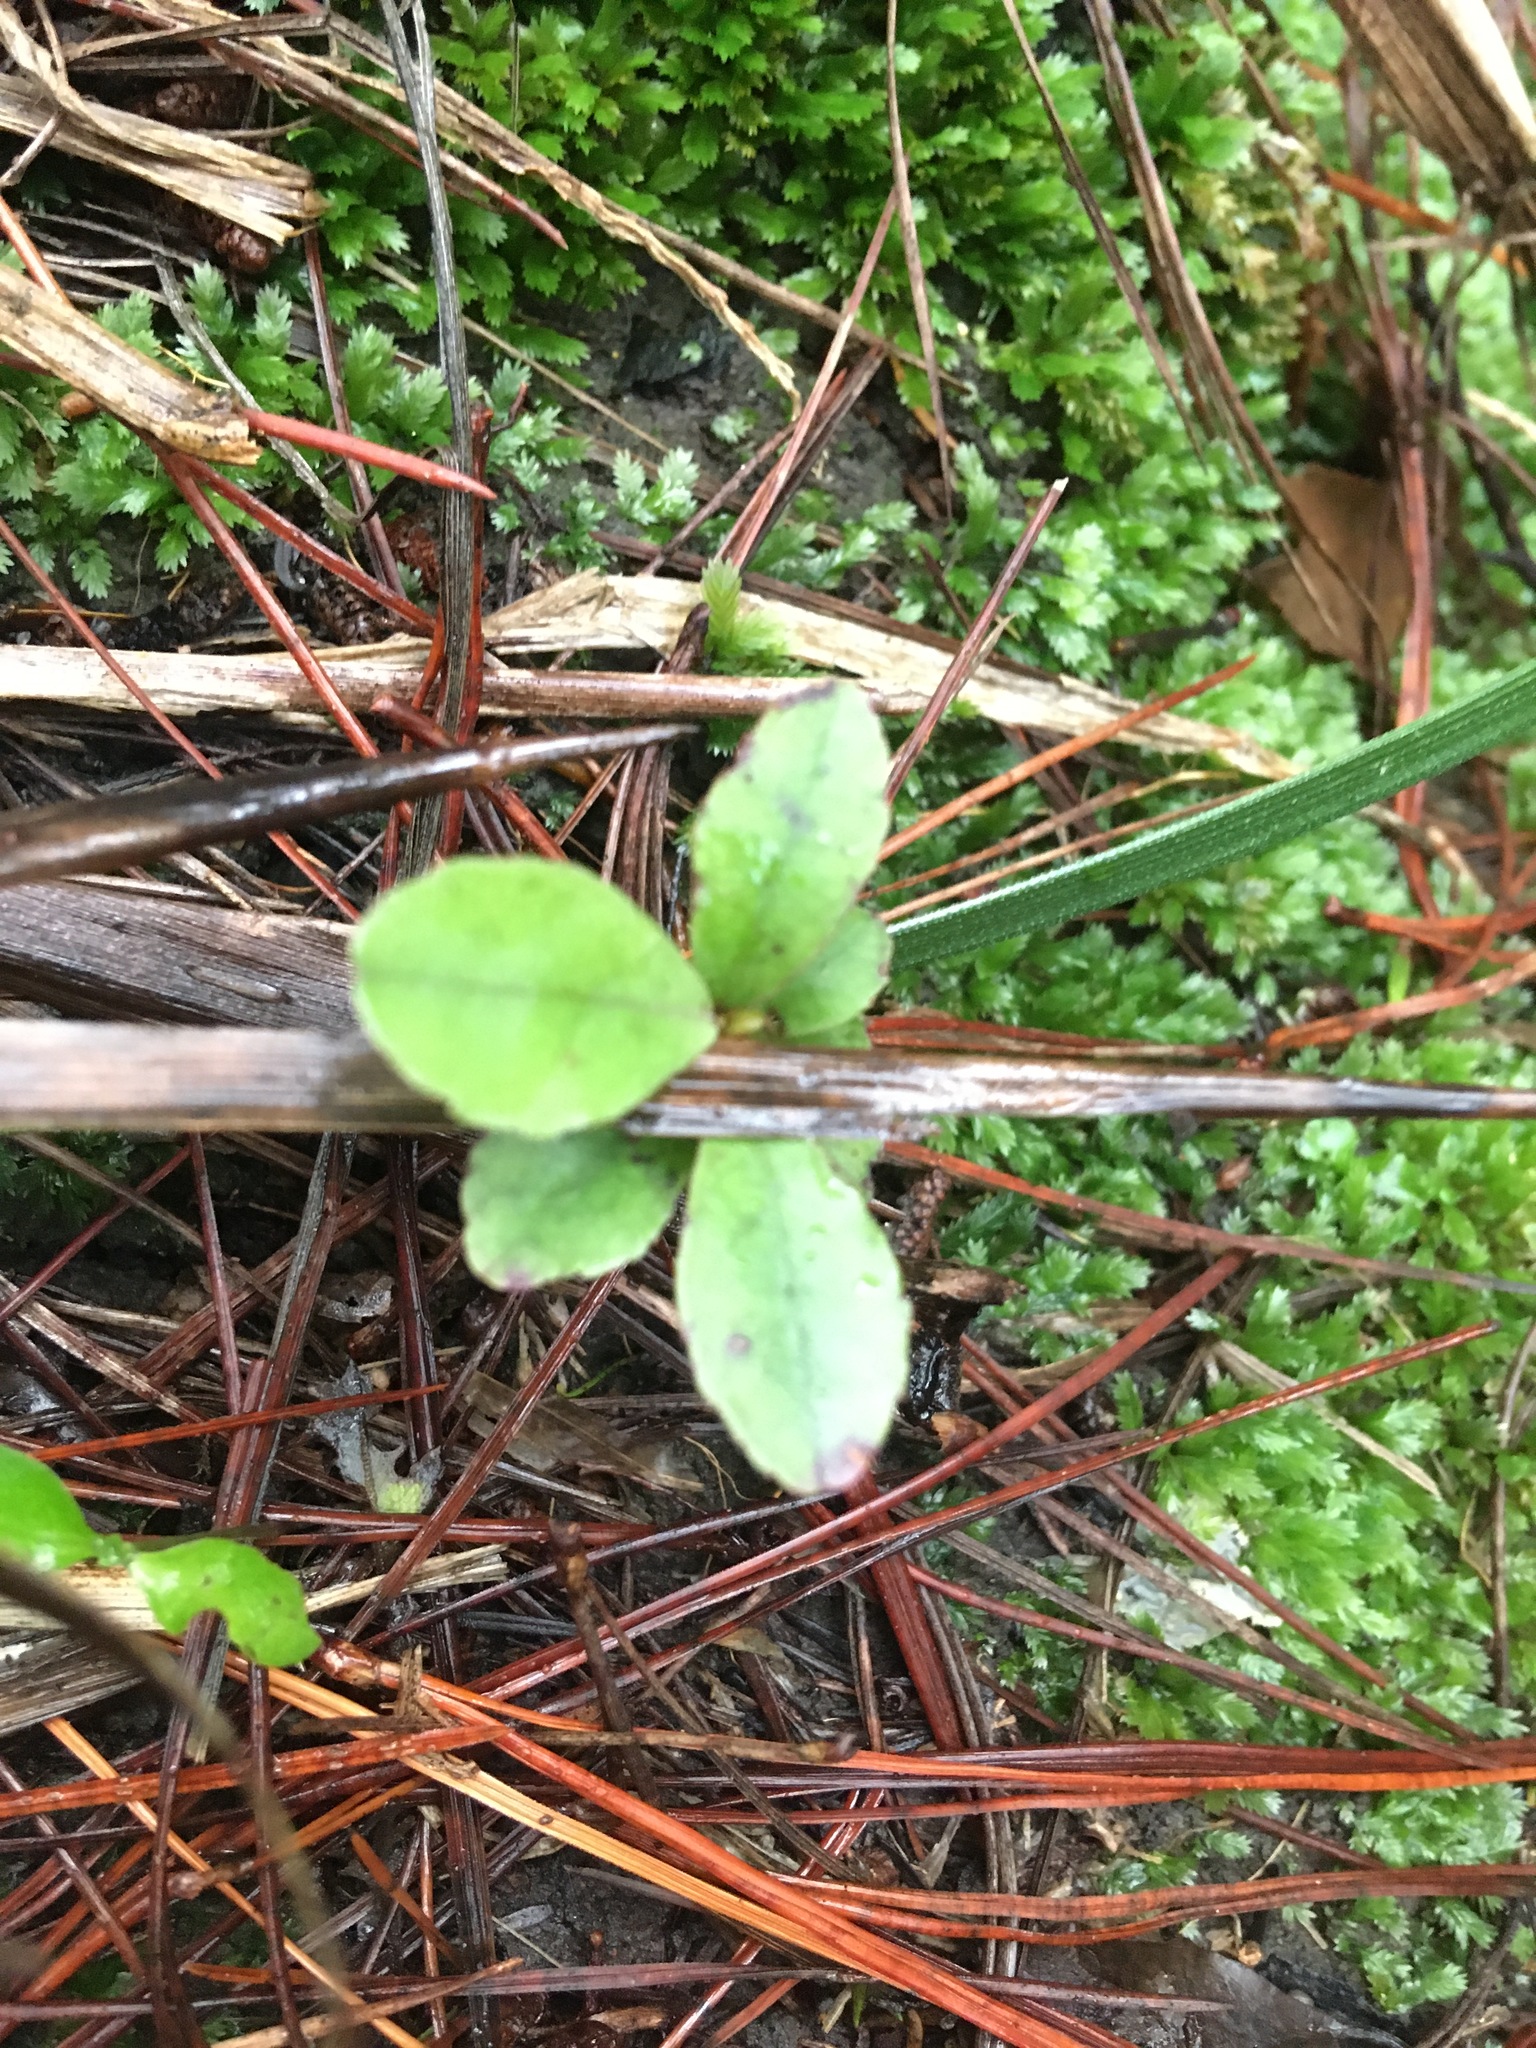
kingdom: Plantae
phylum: Tracheophyta
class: Magnoliopsida
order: Ericales
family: Primulaceae
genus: Myrsine
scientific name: Myrsine australis
